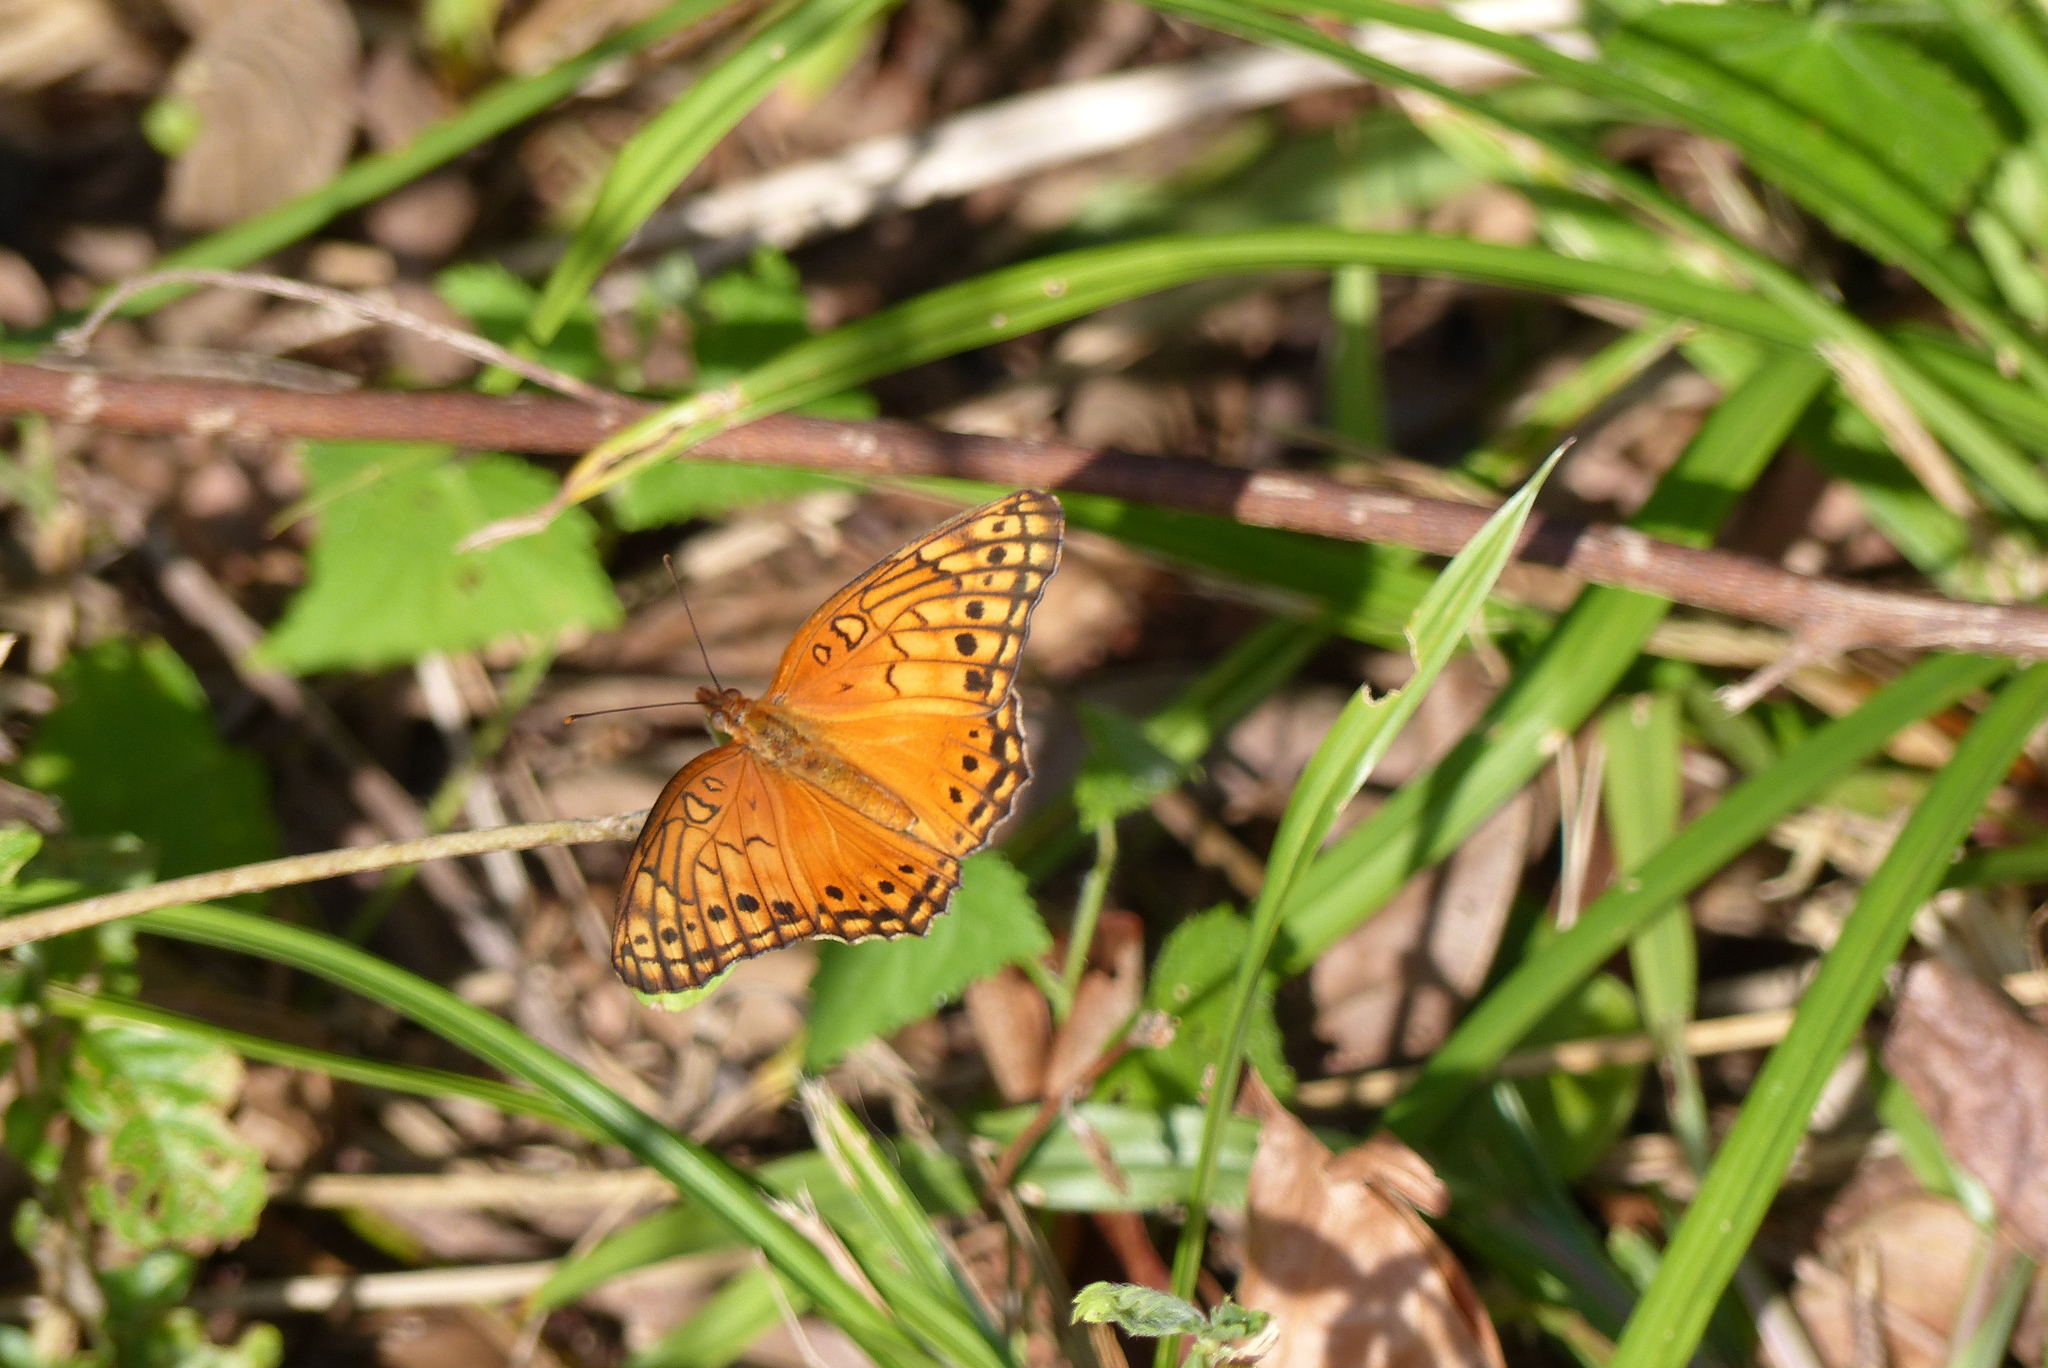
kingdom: Animalia
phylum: Arthropoda
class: Insecta
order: Lepidoptera
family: Nymphalidae
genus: Euptoieta
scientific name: Euptoieta hegesia
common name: Mexican fritillary
